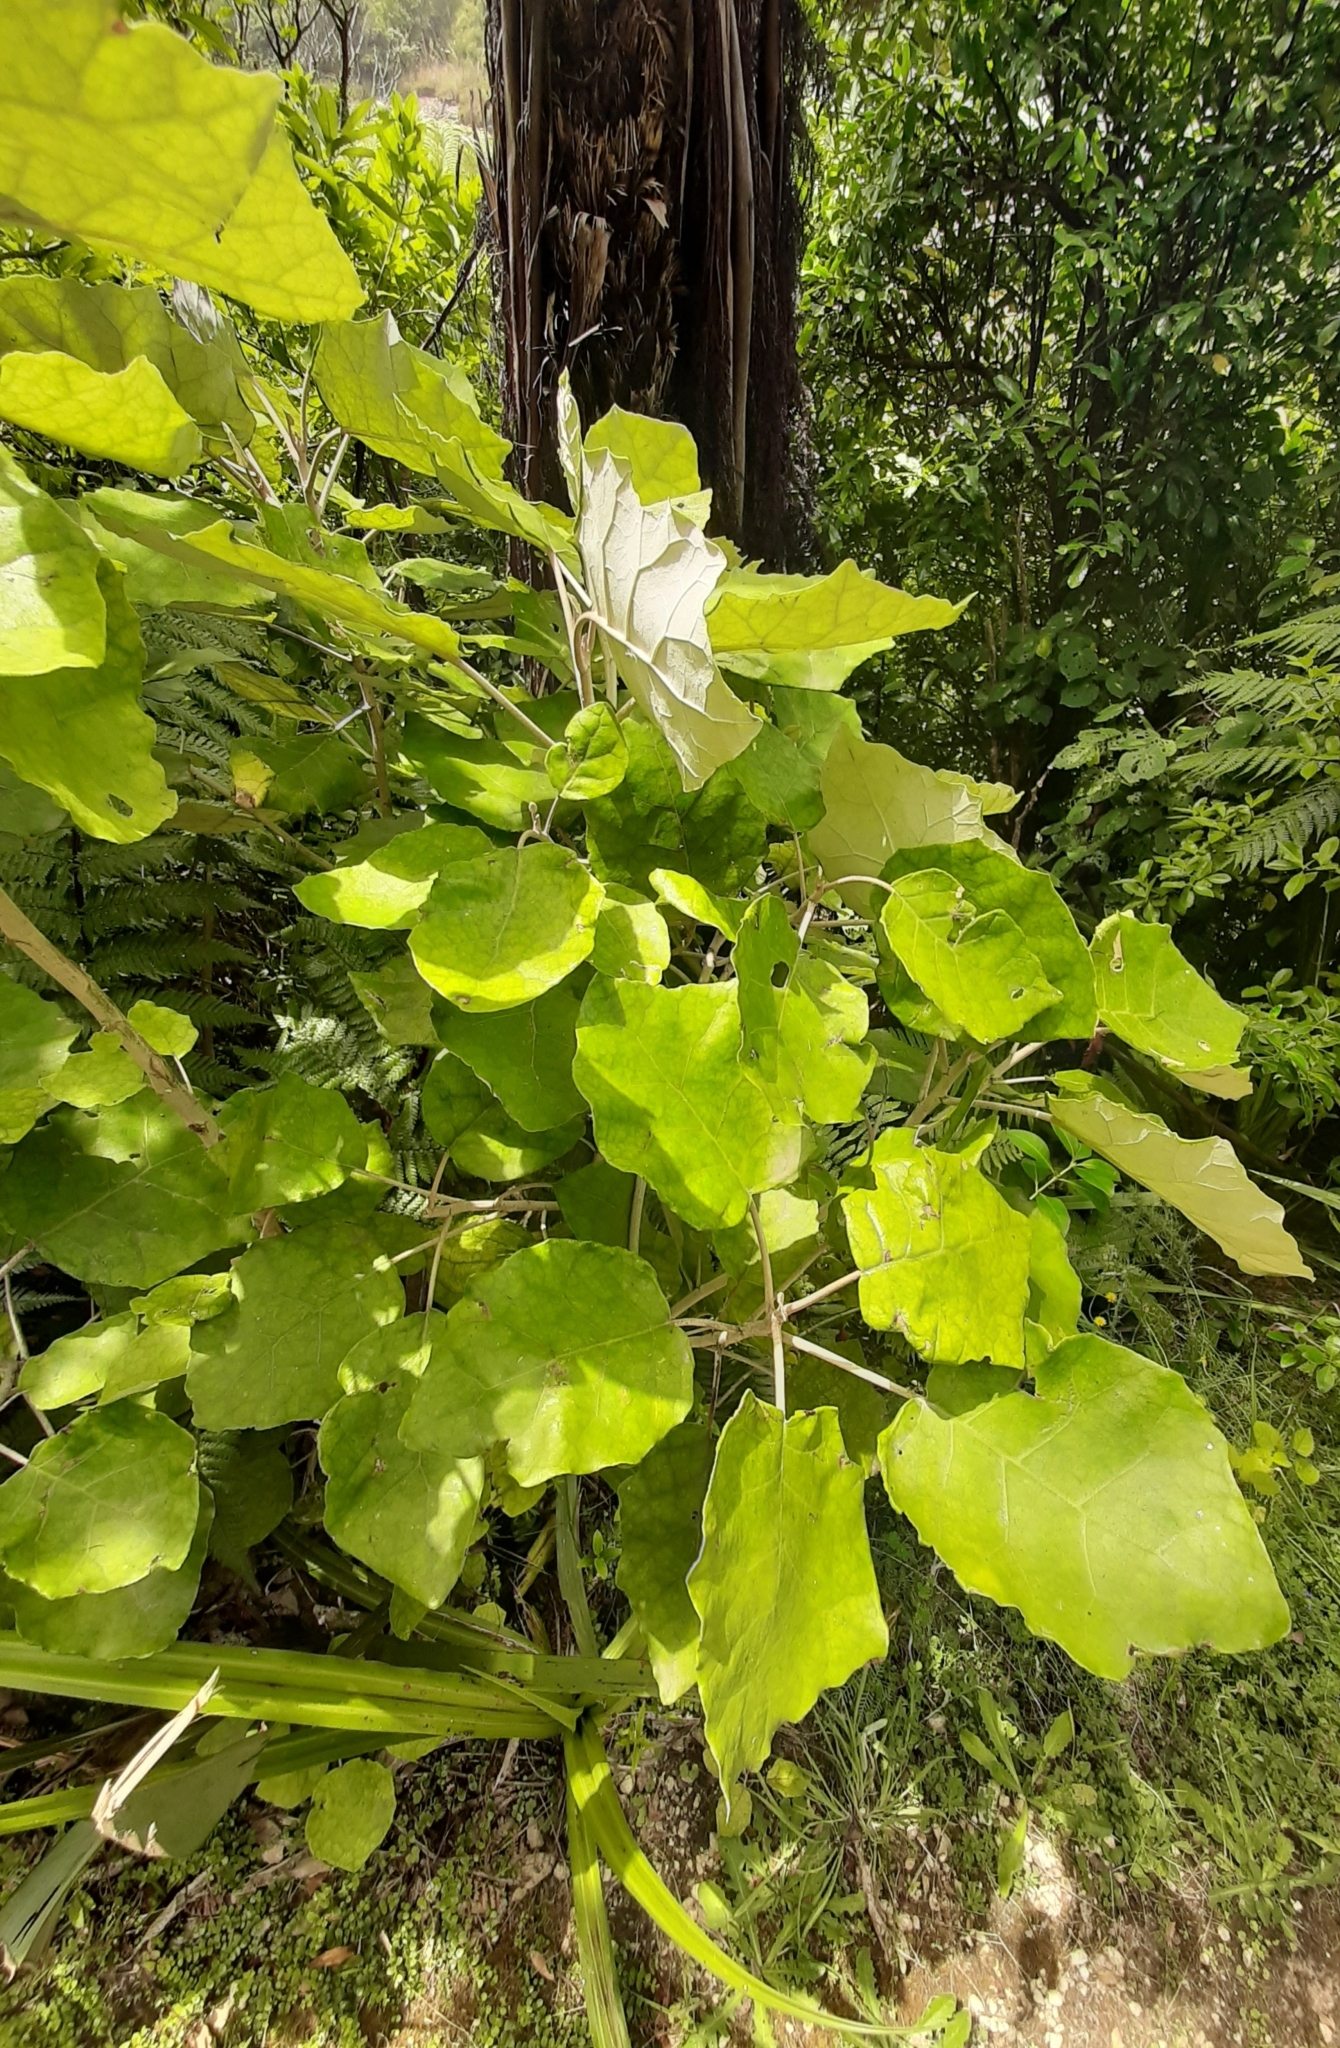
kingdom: Plantae
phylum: Tracheophyta
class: Magnoliopsida
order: Asterales
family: Asteraceae
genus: Brachyglottis
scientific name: Brachyglottis repanda
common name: Hedge ragwort
